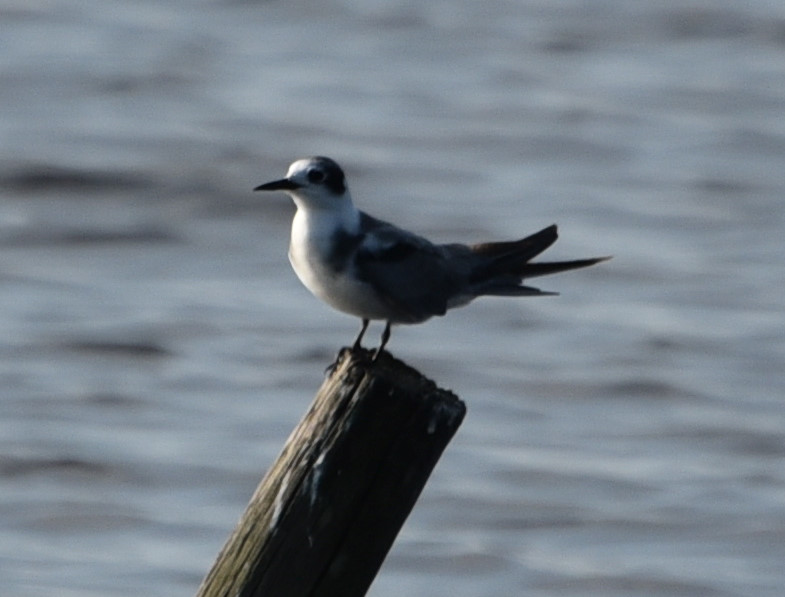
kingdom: Animalia
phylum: Chordata
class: Aves
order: Charadriiformes
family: Laridae
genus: Chlidonias
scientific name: Chlidonias niger
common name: Black tern
